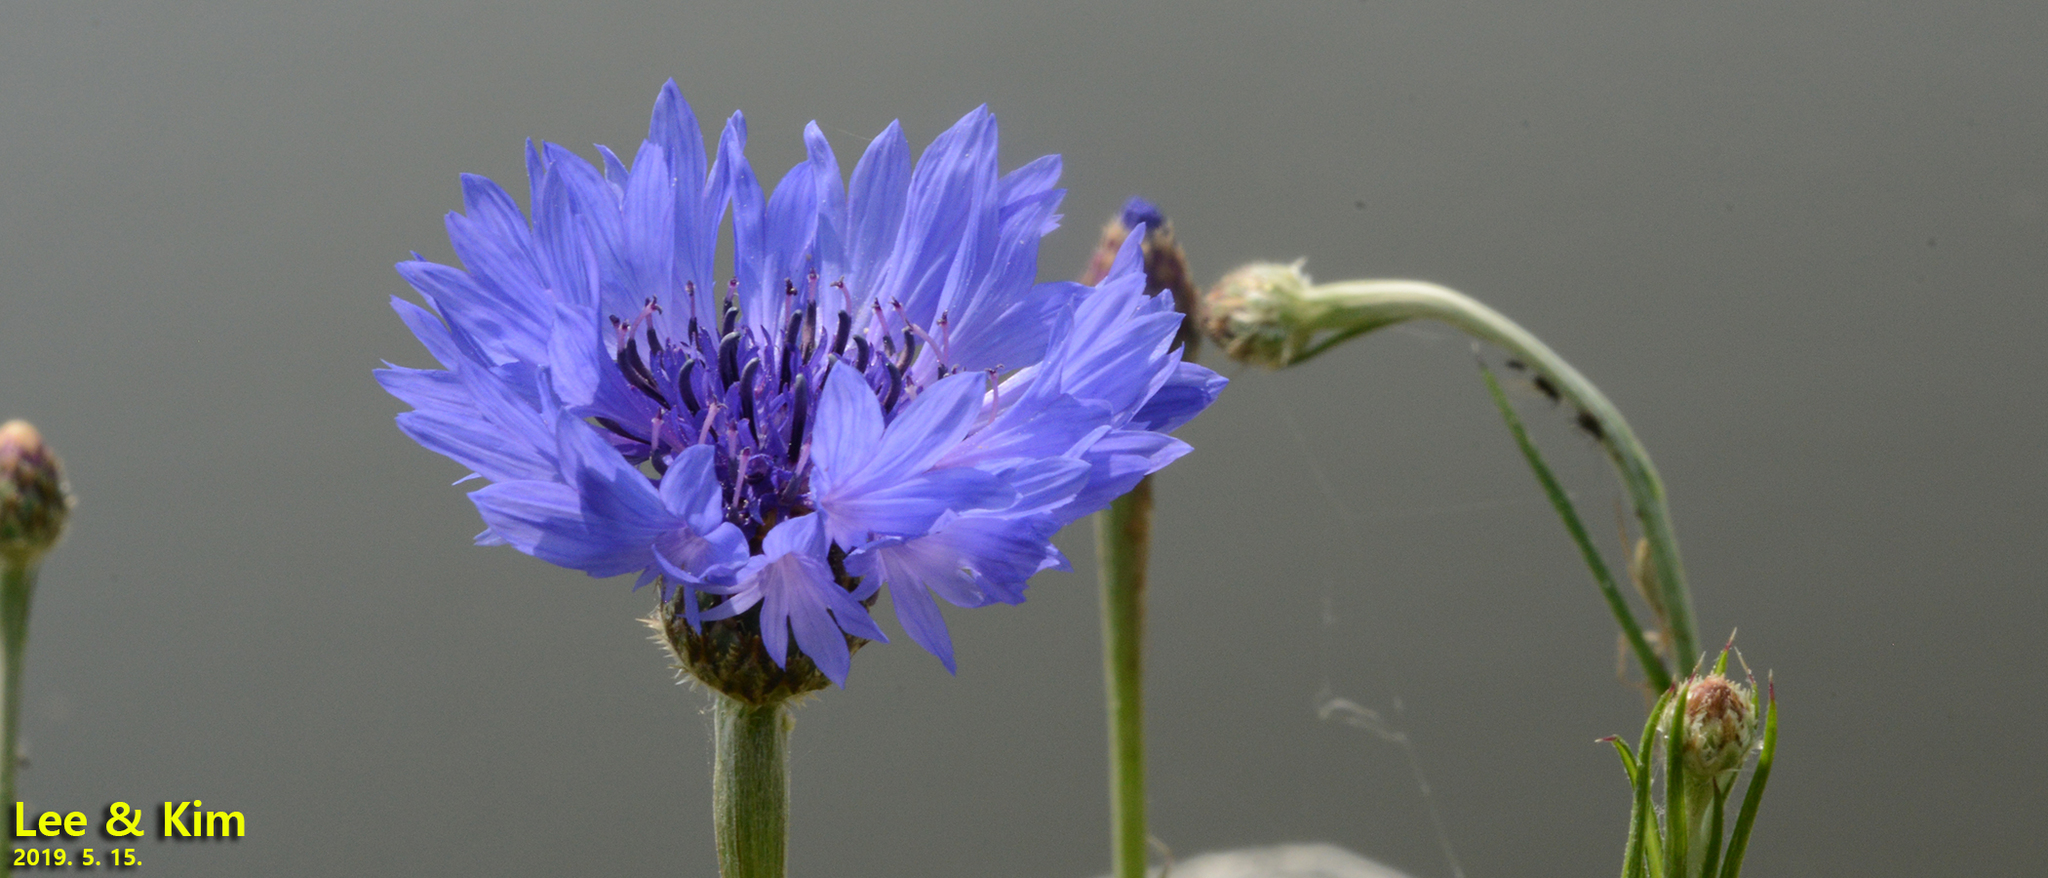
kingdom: Plantae
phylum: Tracheophyta
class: Magnoliopsida
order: Asterales
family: Asteraceae
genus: Centaurea
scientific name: Centaurea cyanus
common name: Cornflower
